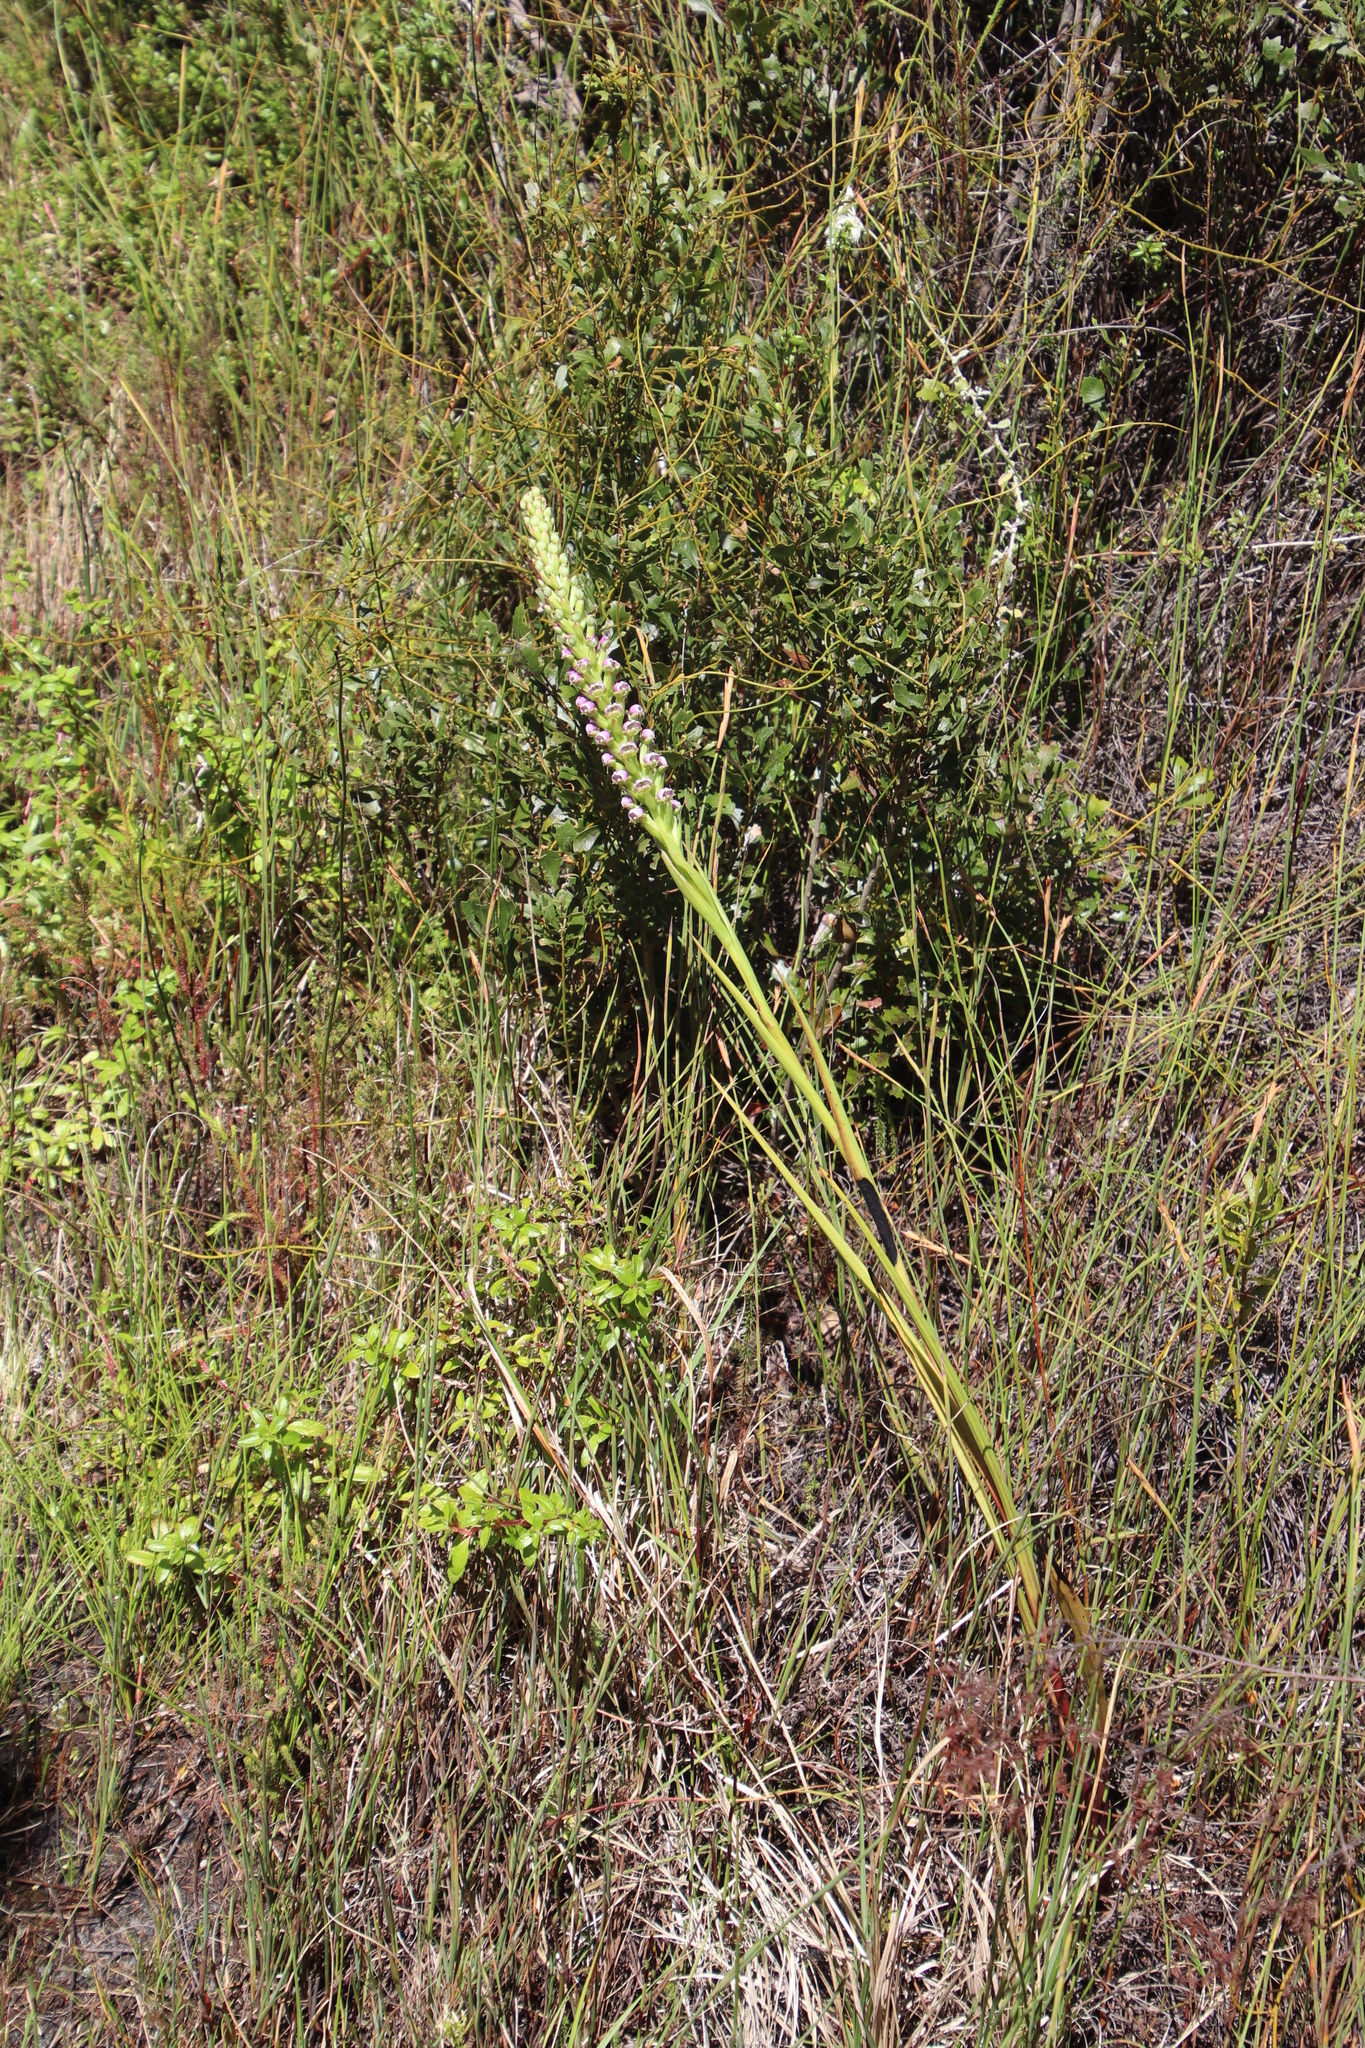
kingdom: Plantae
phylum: Tracheophyta
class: Liliopsida
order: Asparagales
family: Orchidaceae
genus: Evotella
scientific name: Evotella carnosa
